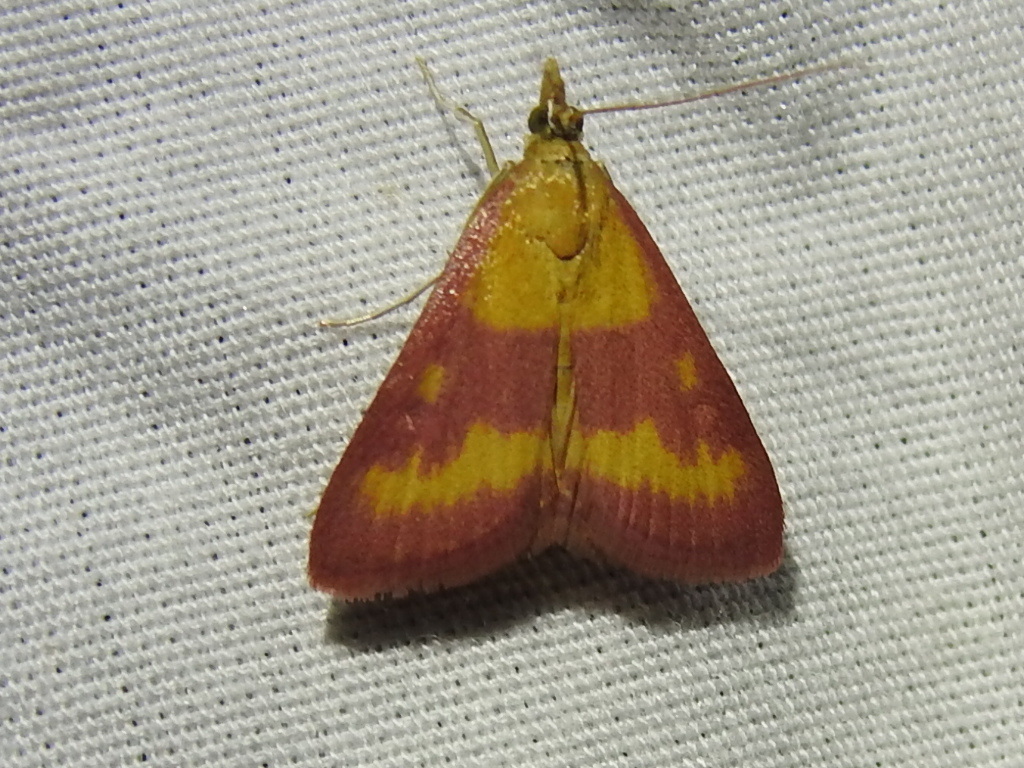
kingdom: Animalia
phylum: Arthropoda
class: Insecta
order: Lepidoptera
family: Crambidae
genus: Pyrausta
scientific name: Pyrausta laticlavia
